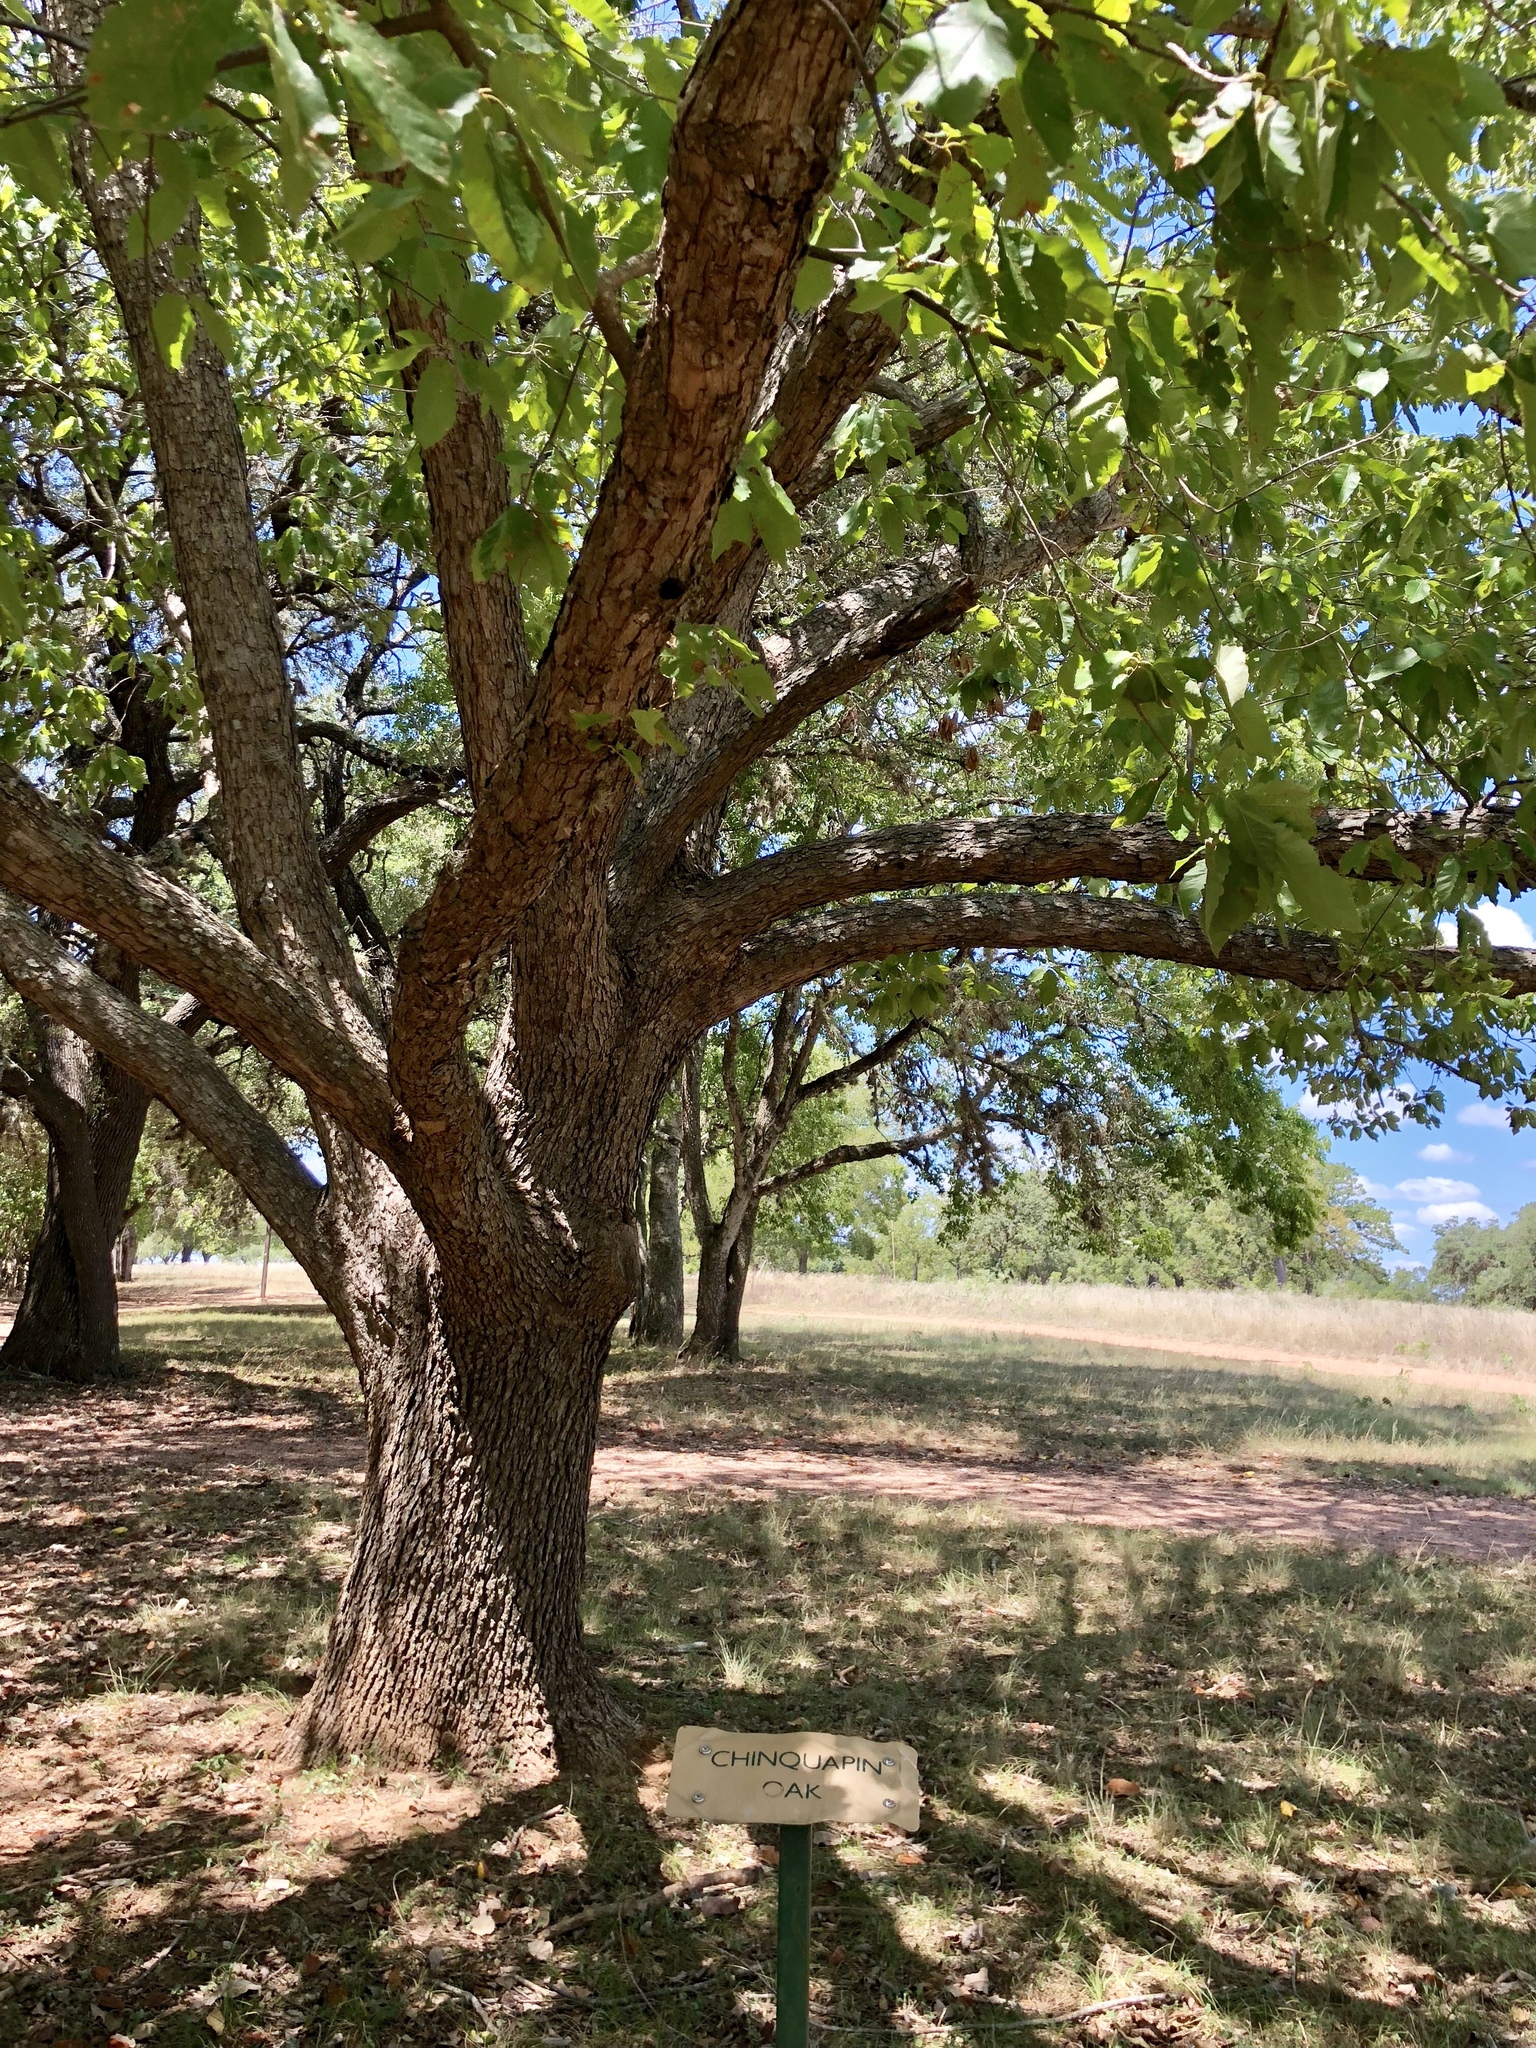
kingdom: Plantae
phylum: Tracheophyta
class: Magnoliopsida
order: Fagales
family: Fagaceae
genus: Quercus
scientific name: Quercus muehlenbergii
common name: Chinkapin oak
